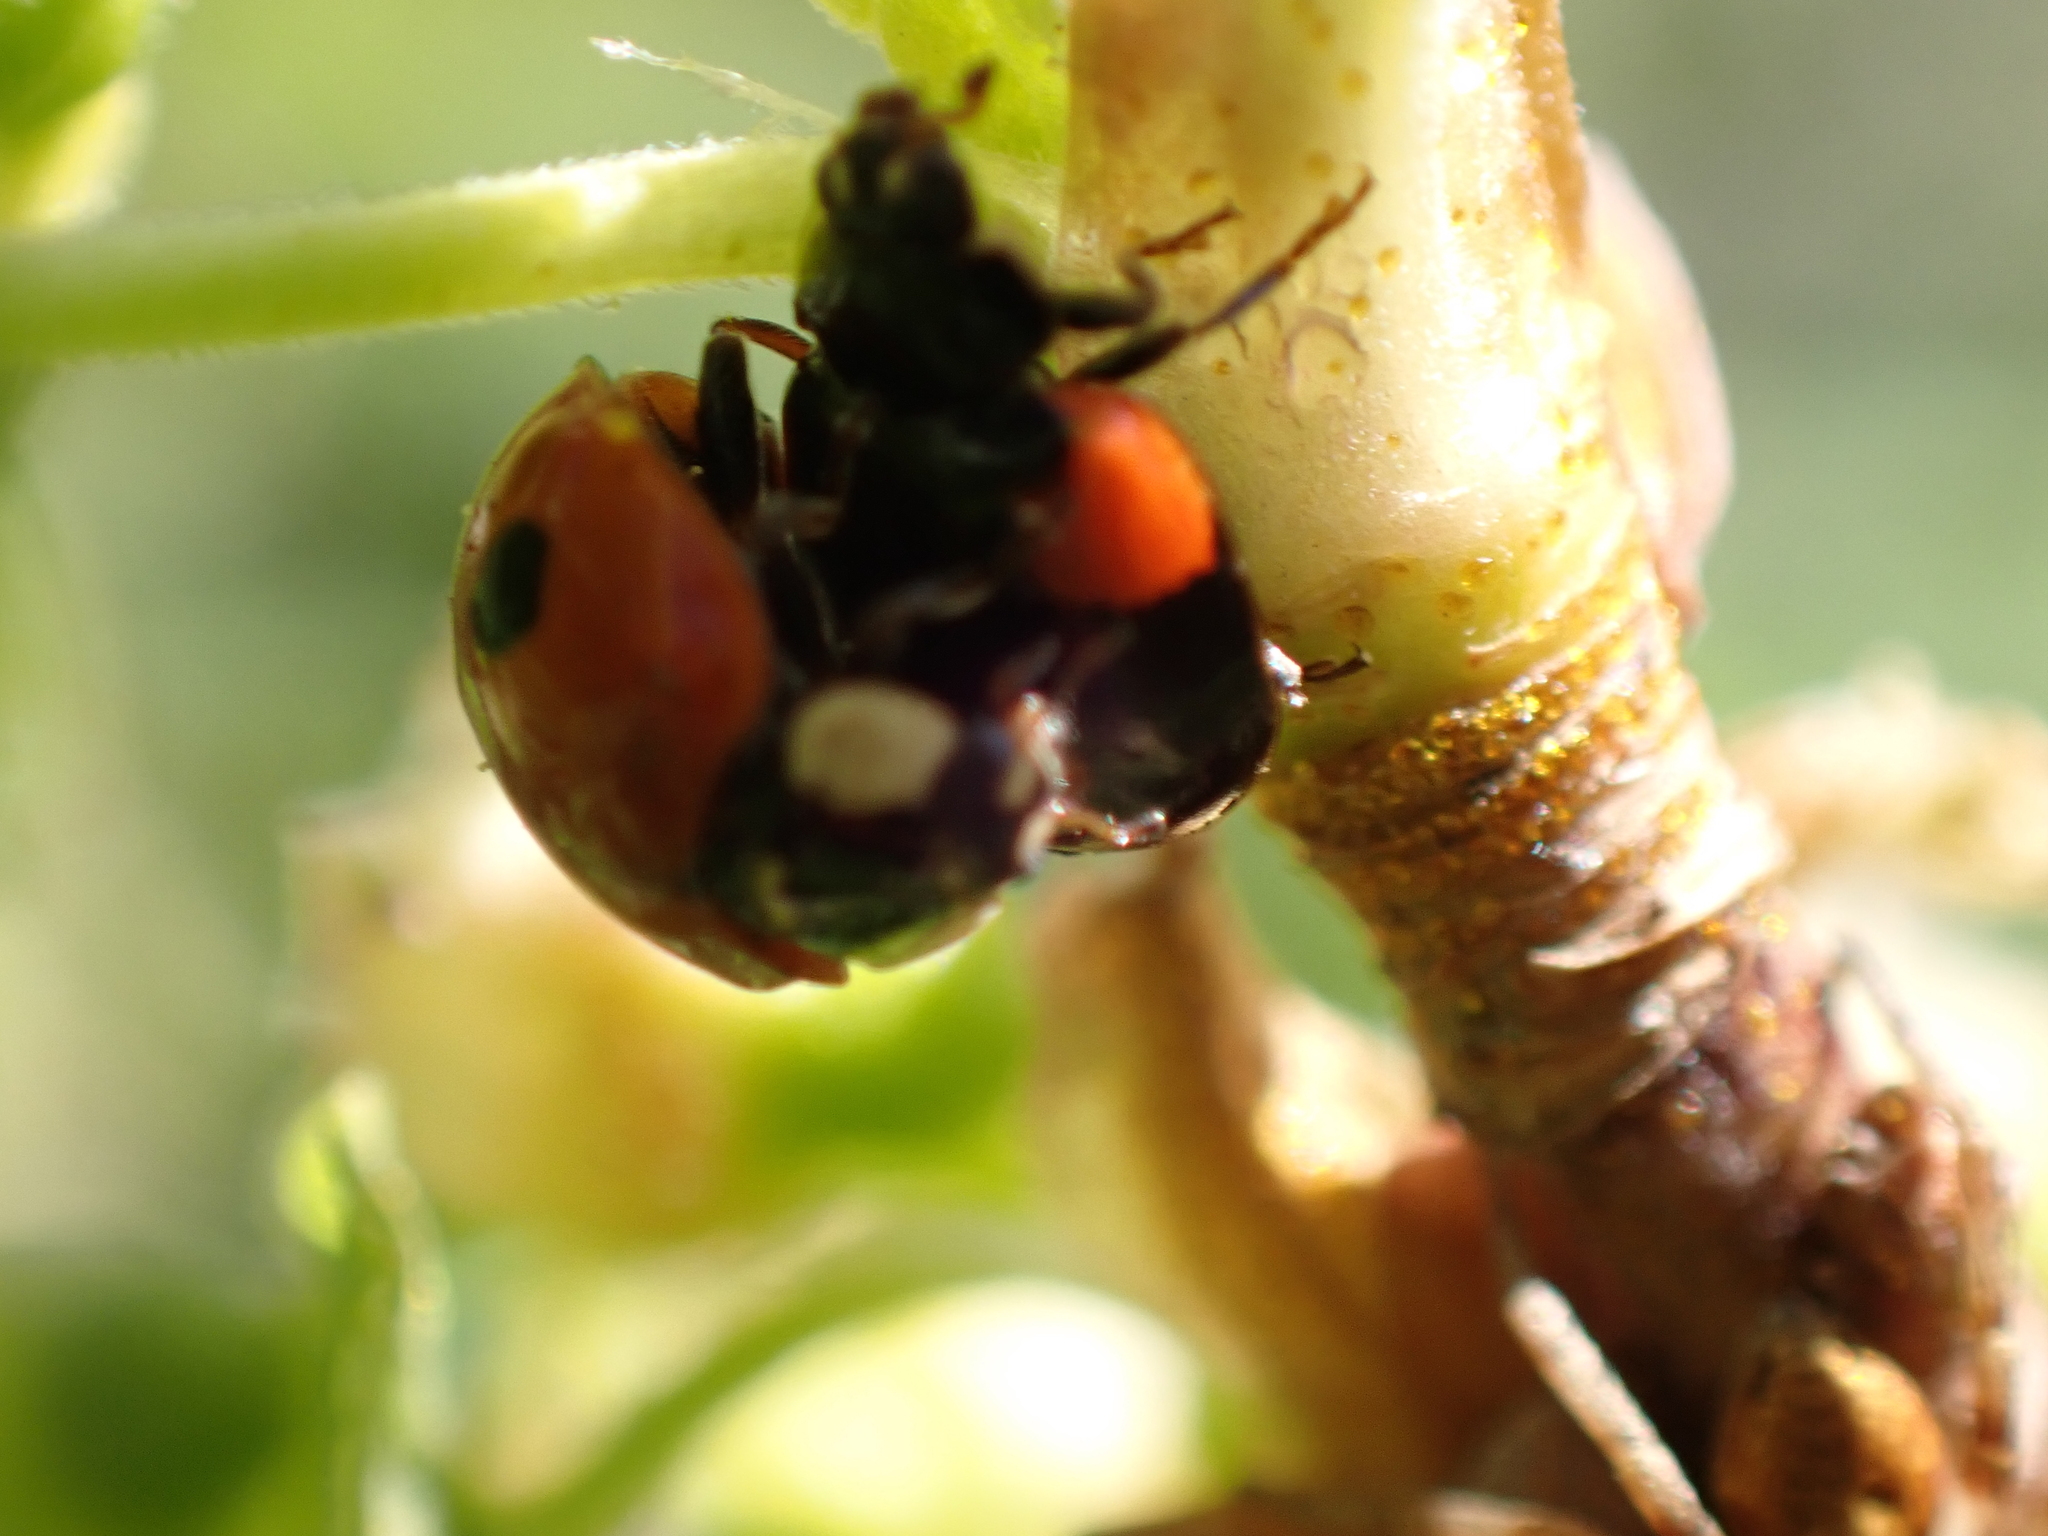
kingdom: Animalia
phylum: Arthropoda
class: Insecta
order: Coleoptera
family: Coccinellidae
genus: Adalia
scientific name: Adalia bipunctata
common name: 2-spot ladybird
